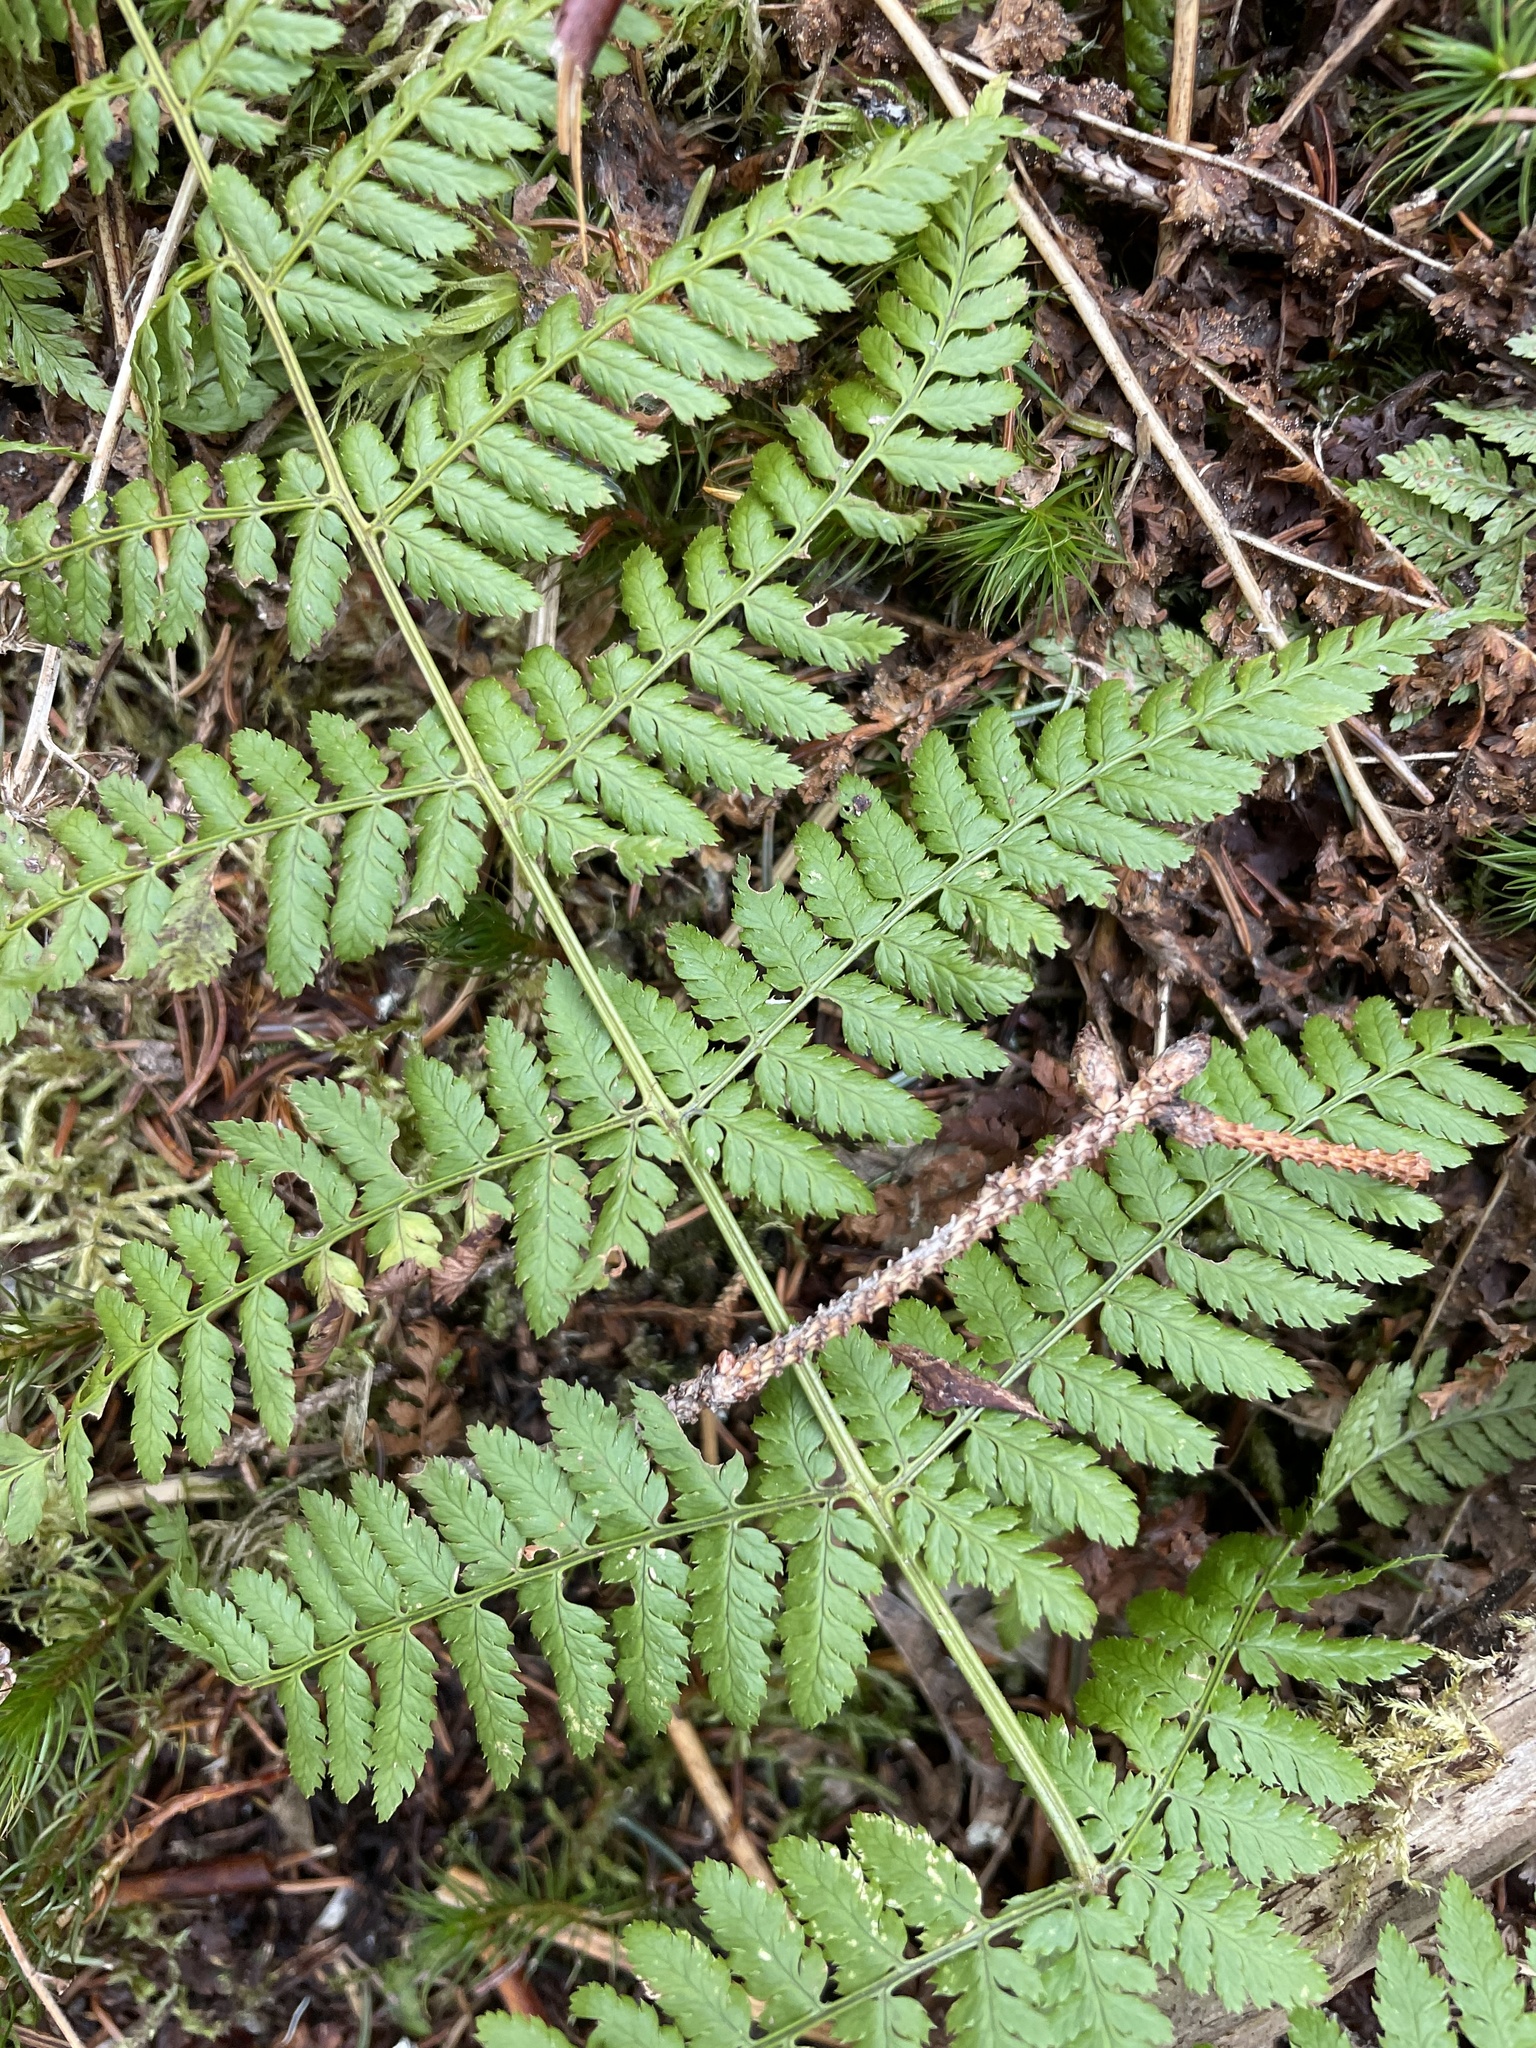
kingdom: Plantae
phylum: Tracheophyta
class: Polypodiopsida
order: Polypodiales
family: Dryopteridaceae
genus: Dryopteris
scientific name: Dryopteris intermedia
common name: Evergreen wood fern
